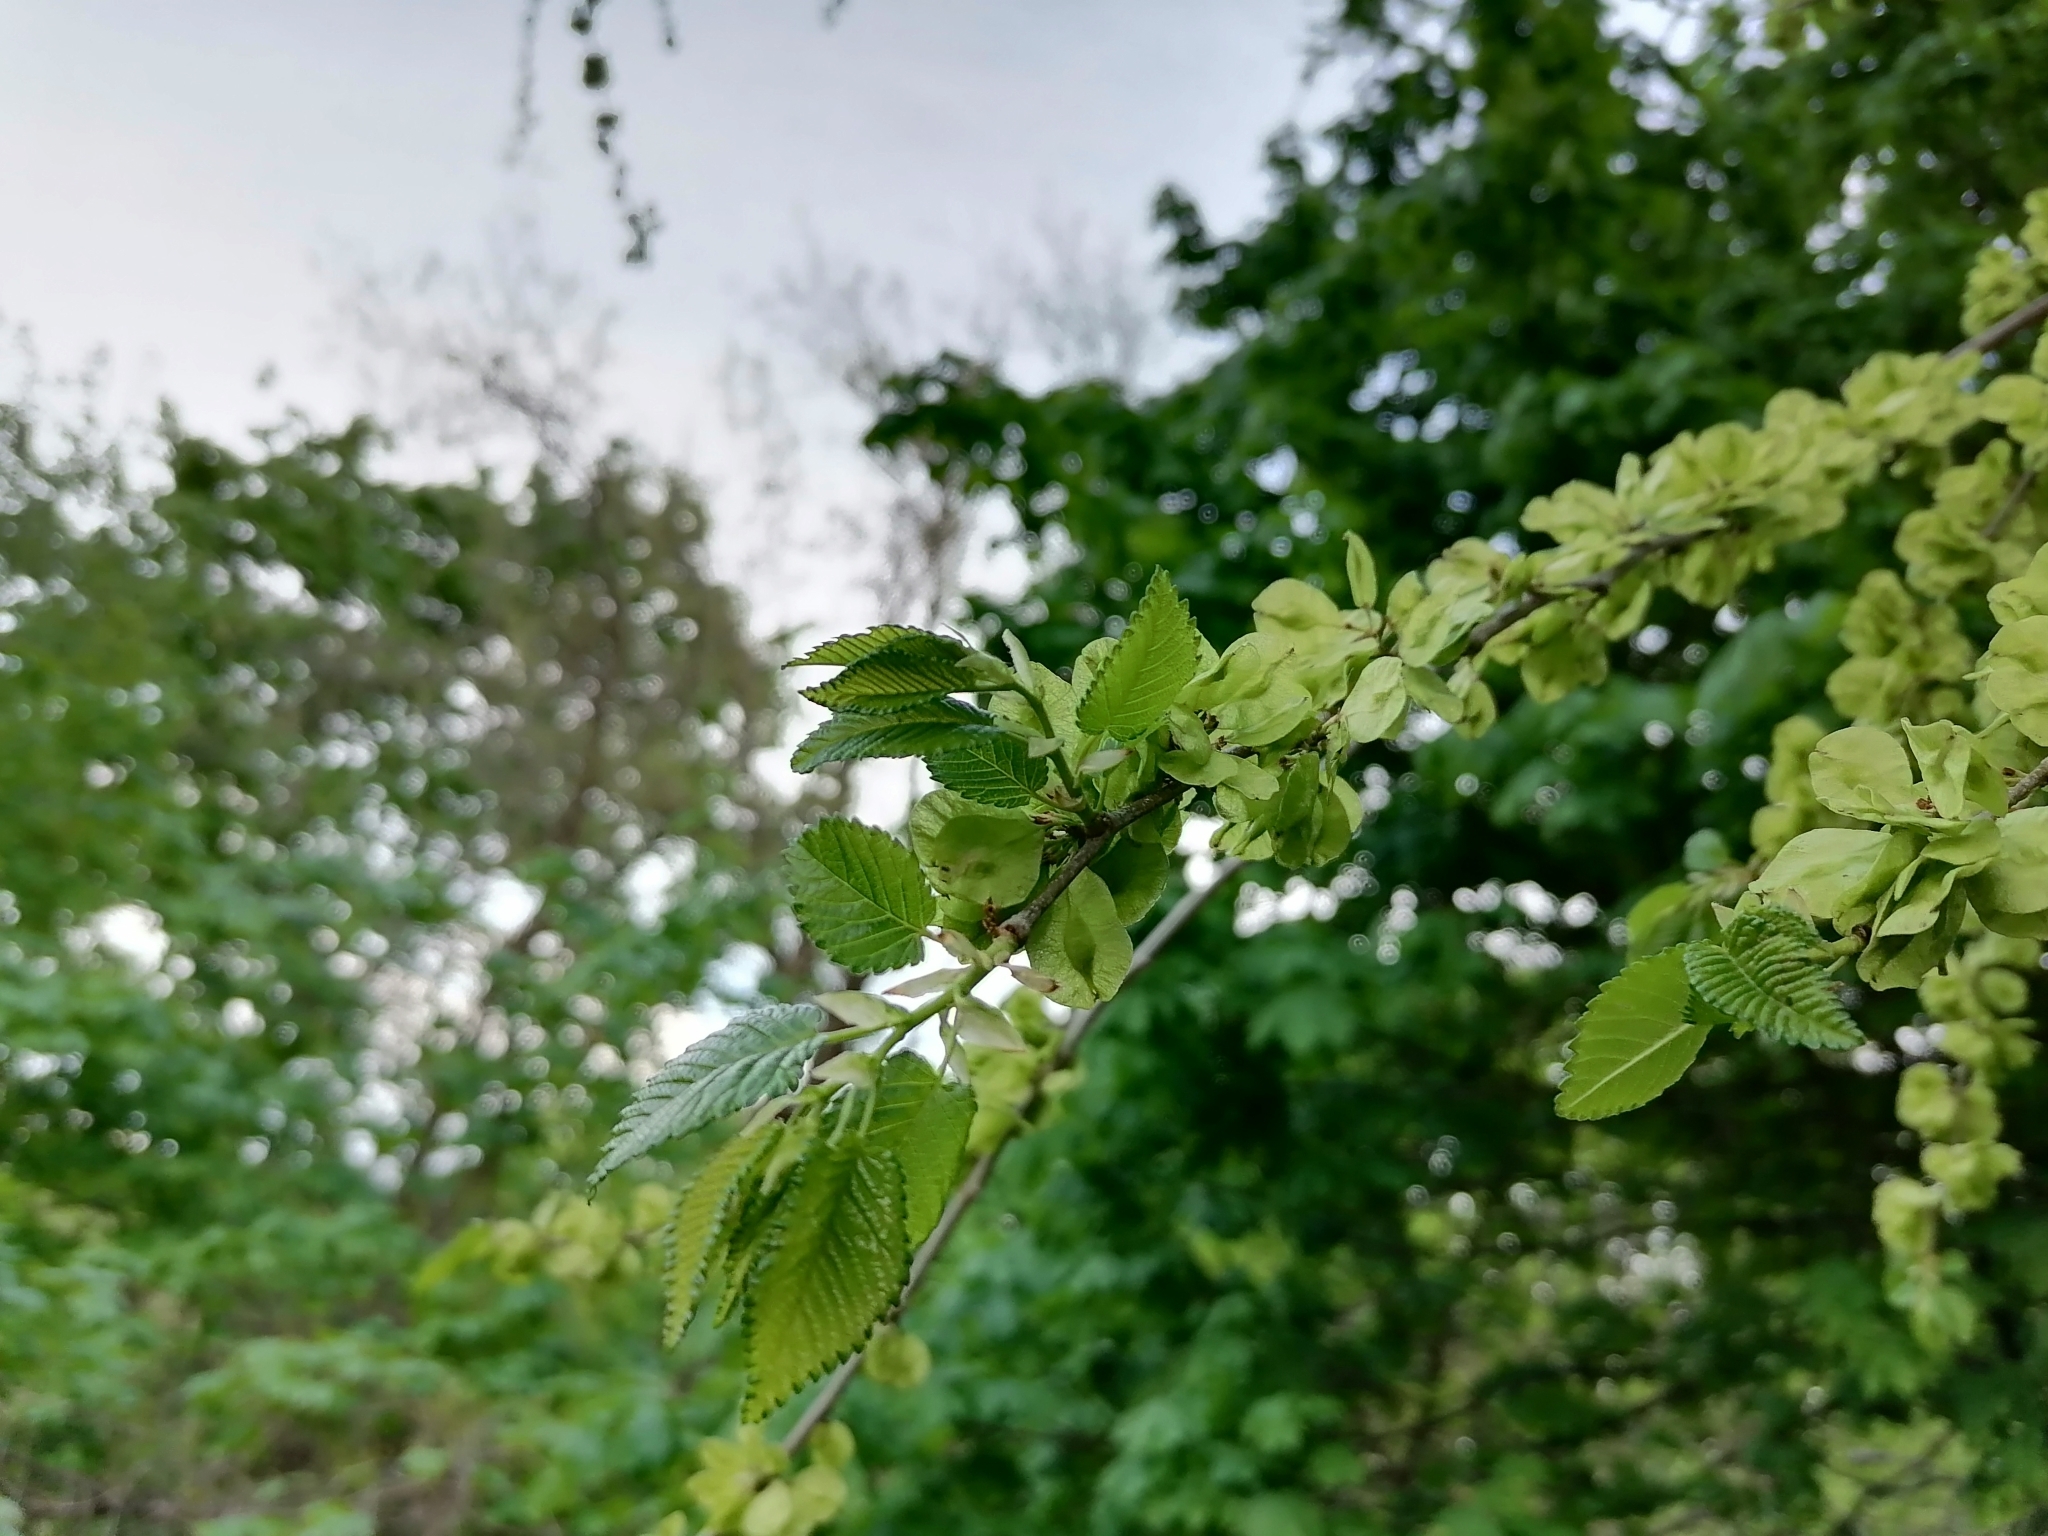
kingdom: Plantae
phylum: Tracheophyta
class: Magnoliopsida
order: Rosales
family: Ulmaceae
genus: Ulmus
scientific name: Ulmus pumila
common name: Siberian elm
